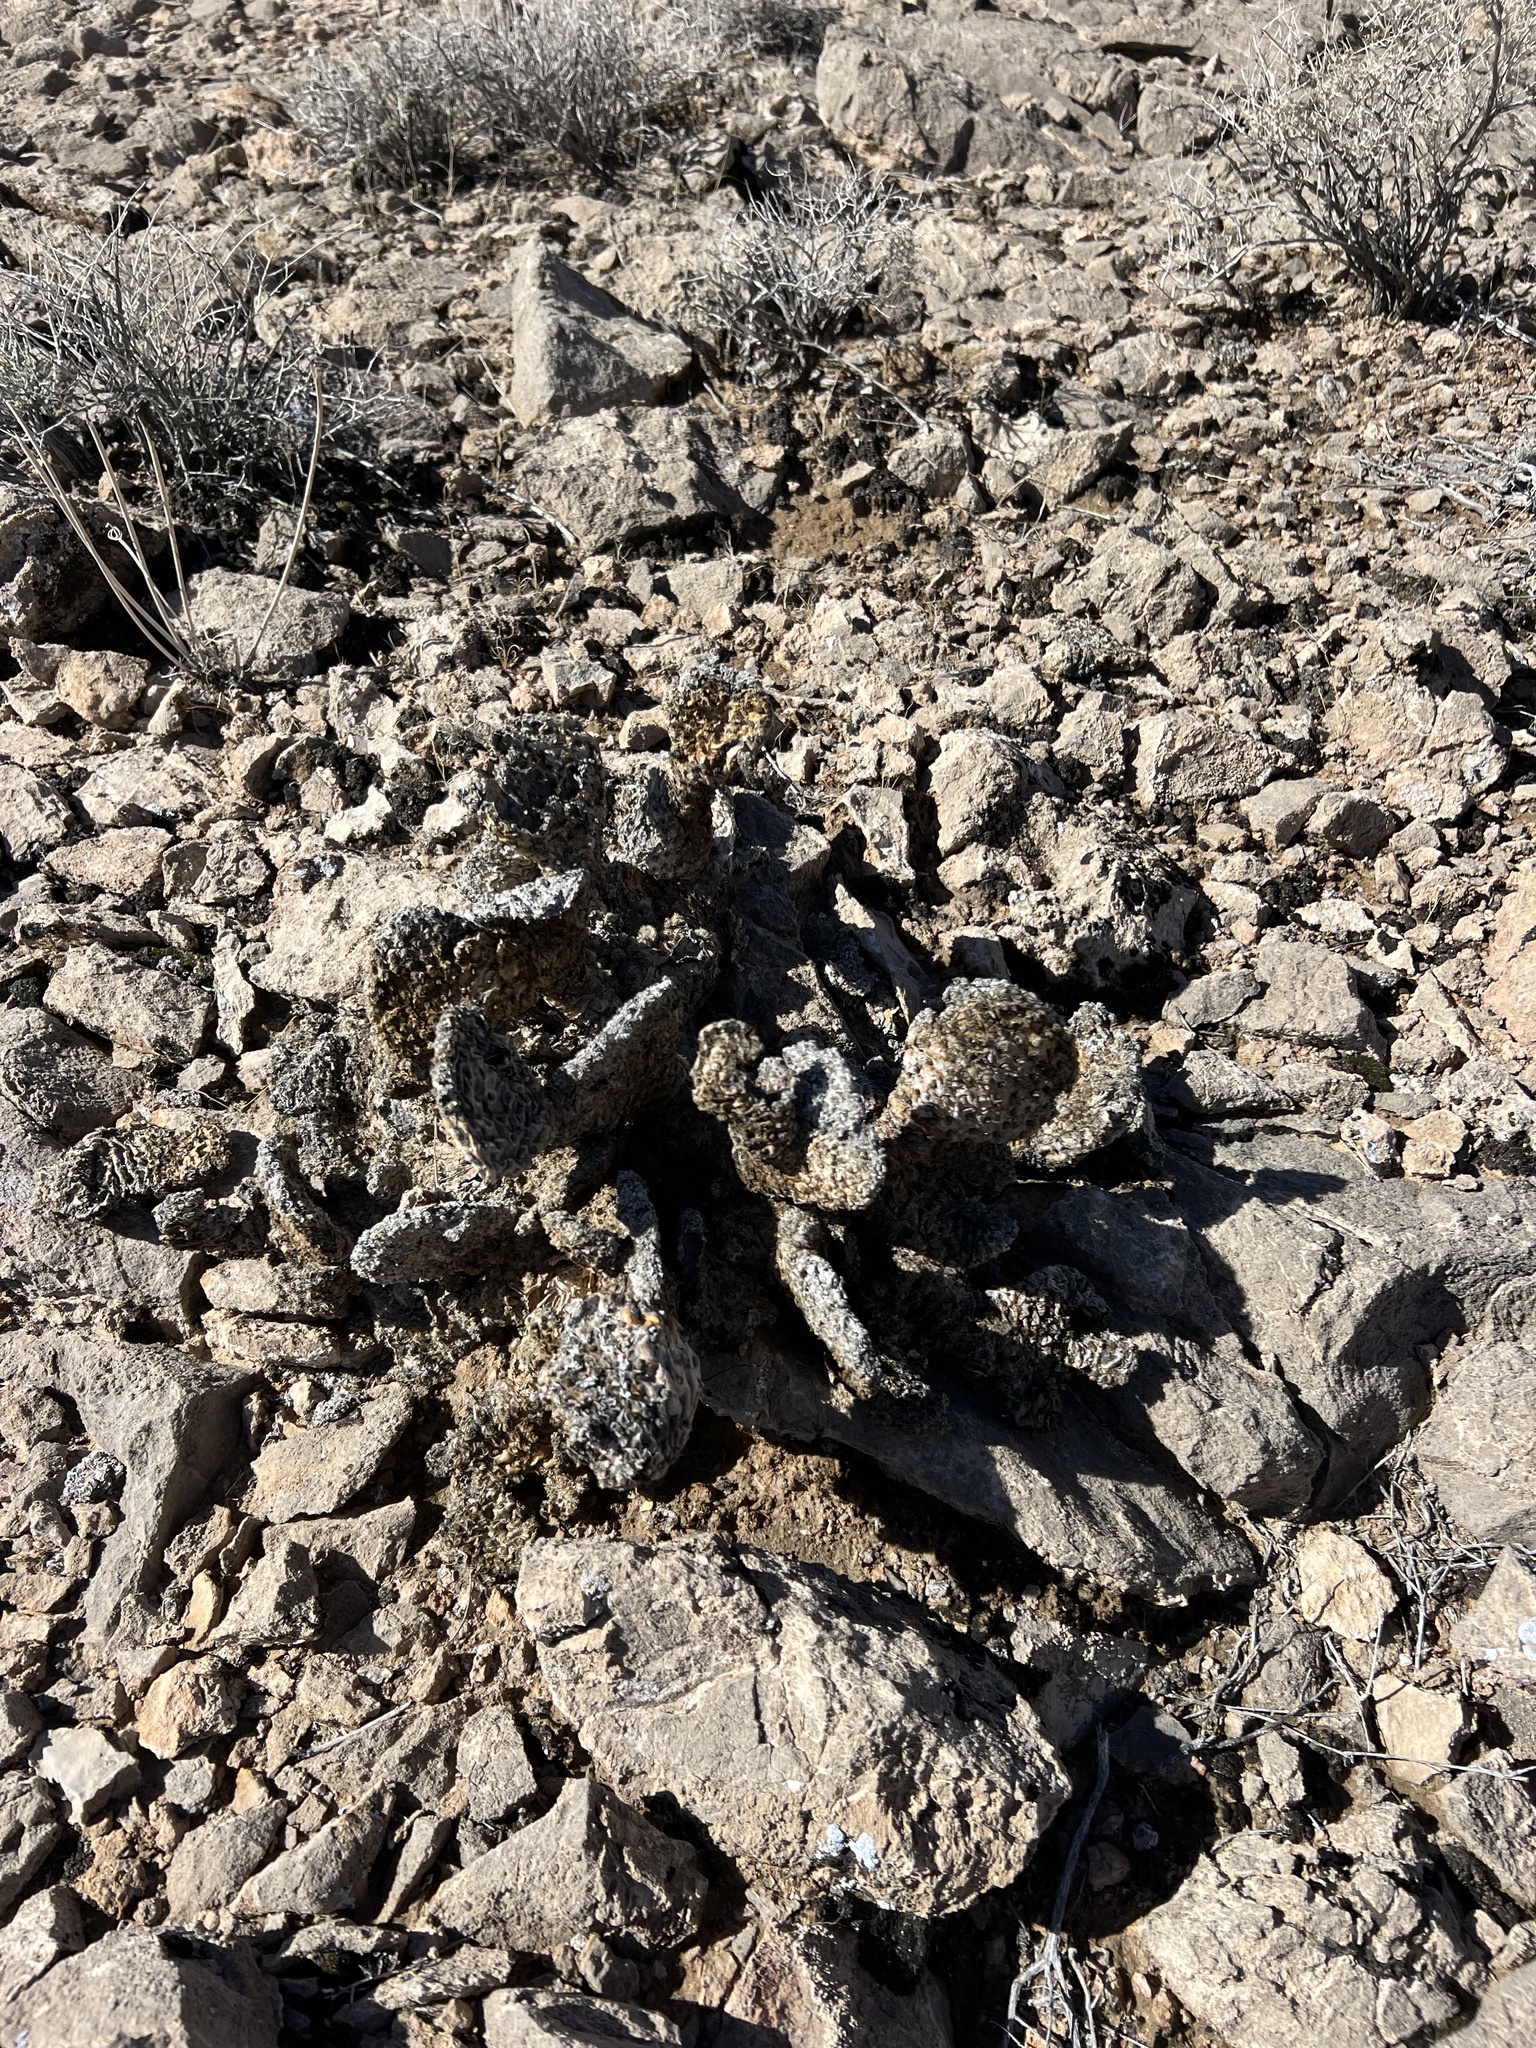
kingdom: Plantae
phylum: Tracheophyta
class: Magnoliopsida
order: Caryophyllales
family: Cactaceae
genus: Opuntia
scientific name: Opuntia basilaris
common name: Beavertail prickly-pear
